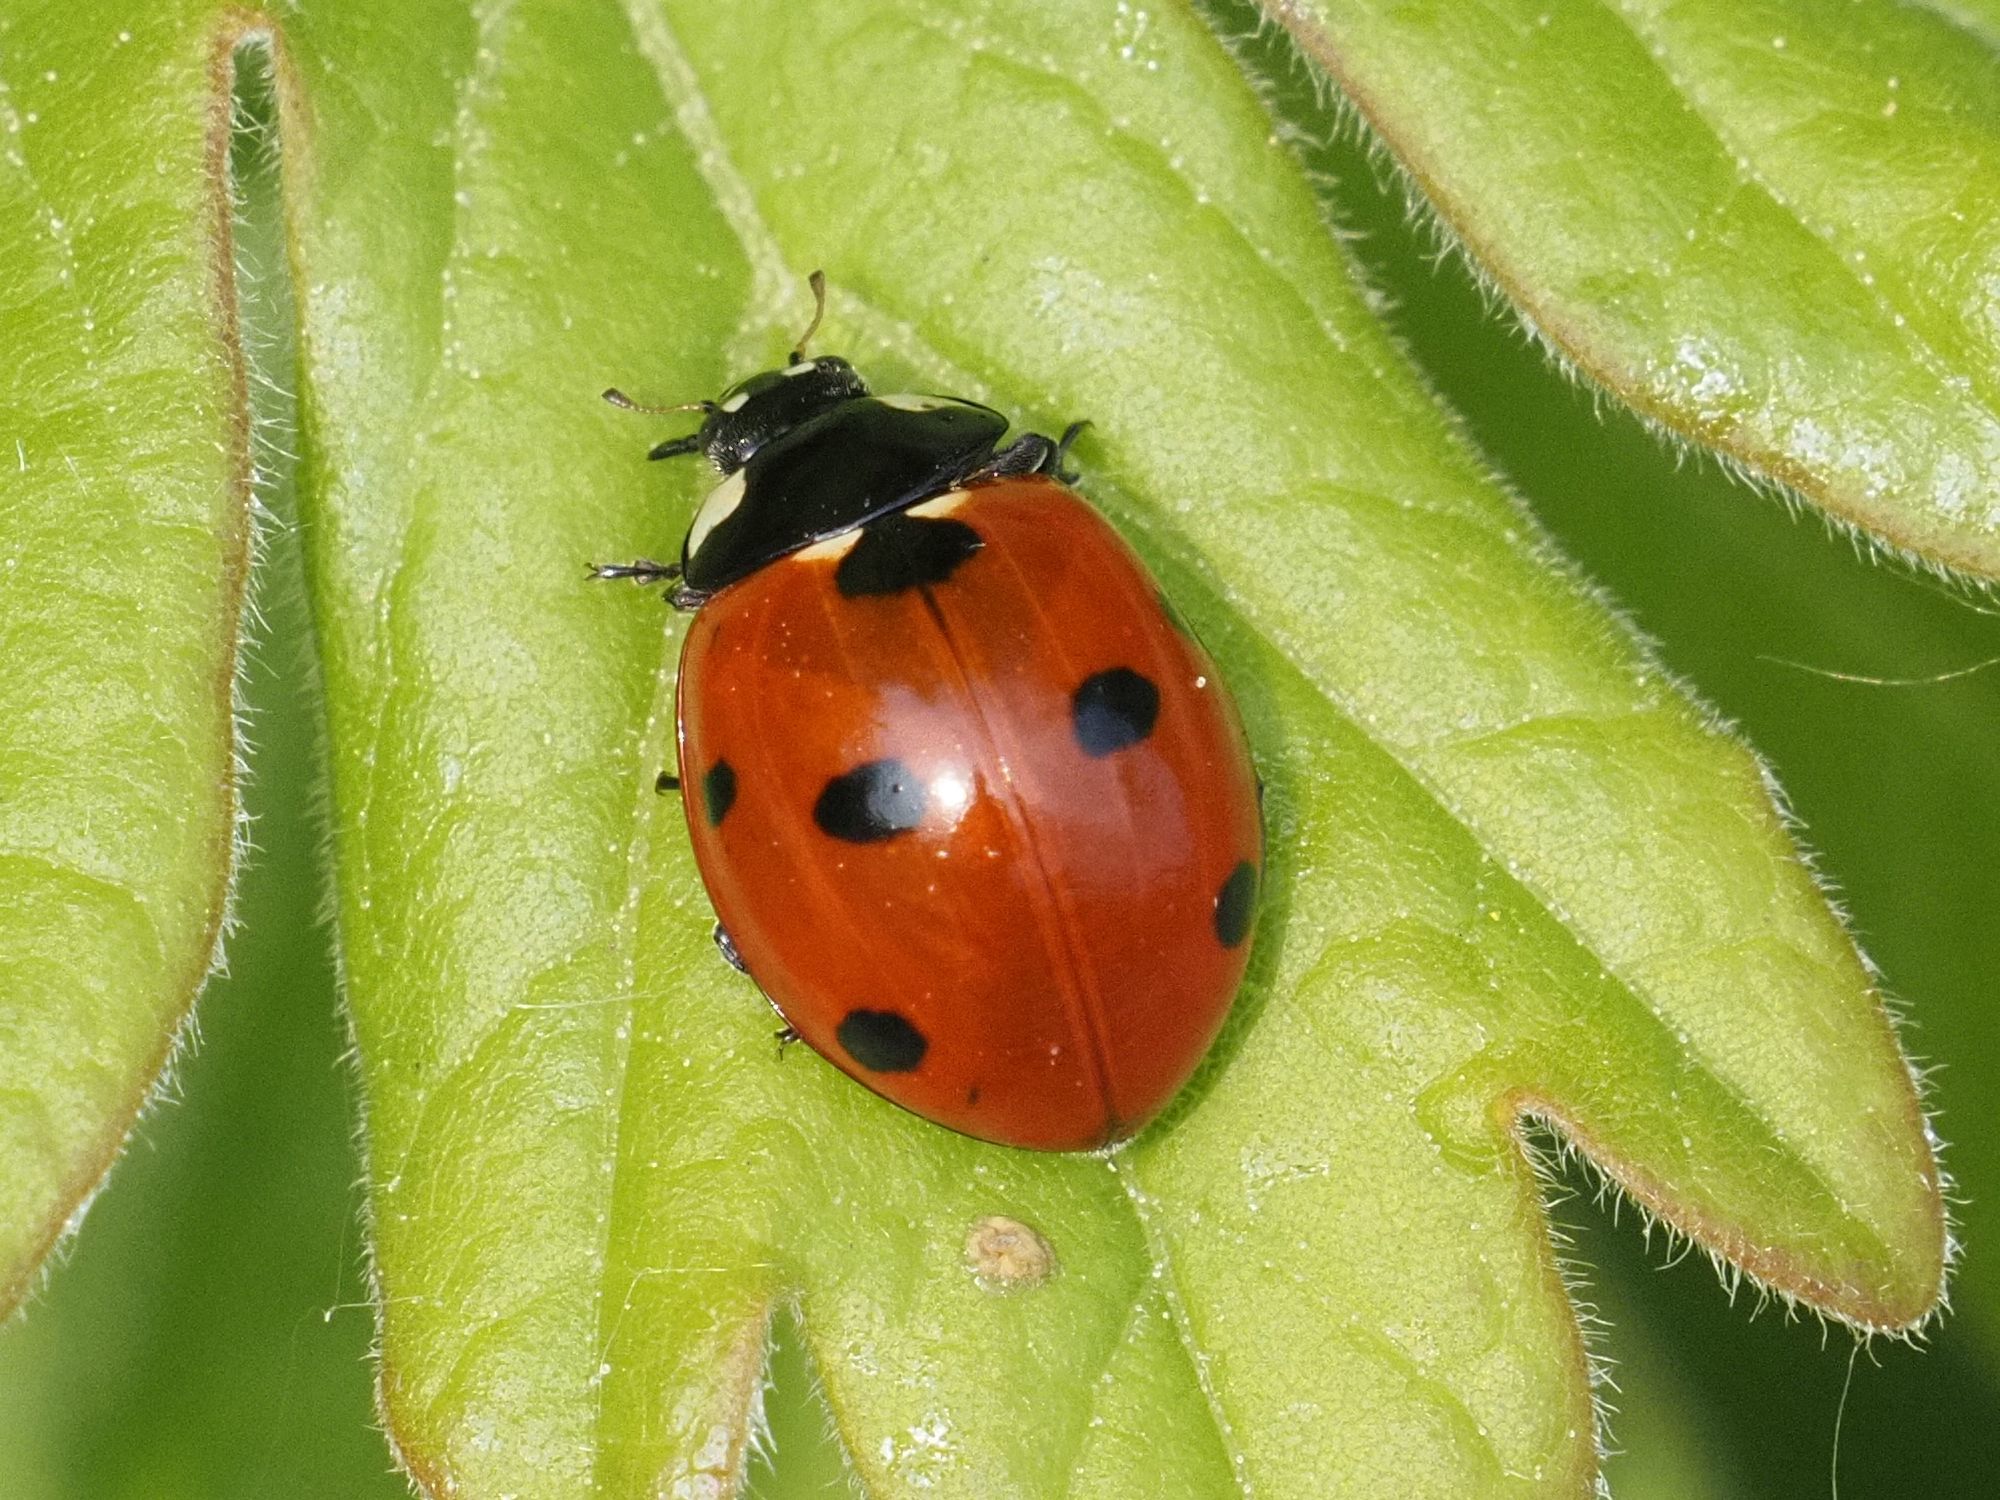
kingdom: Animalia
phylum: Arthropoda
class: Insecta
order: Coleoptera
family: Coccinellidae
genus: Coccinella
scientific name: Coccinella septempunctata
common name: Sevenspotted lady beetle
